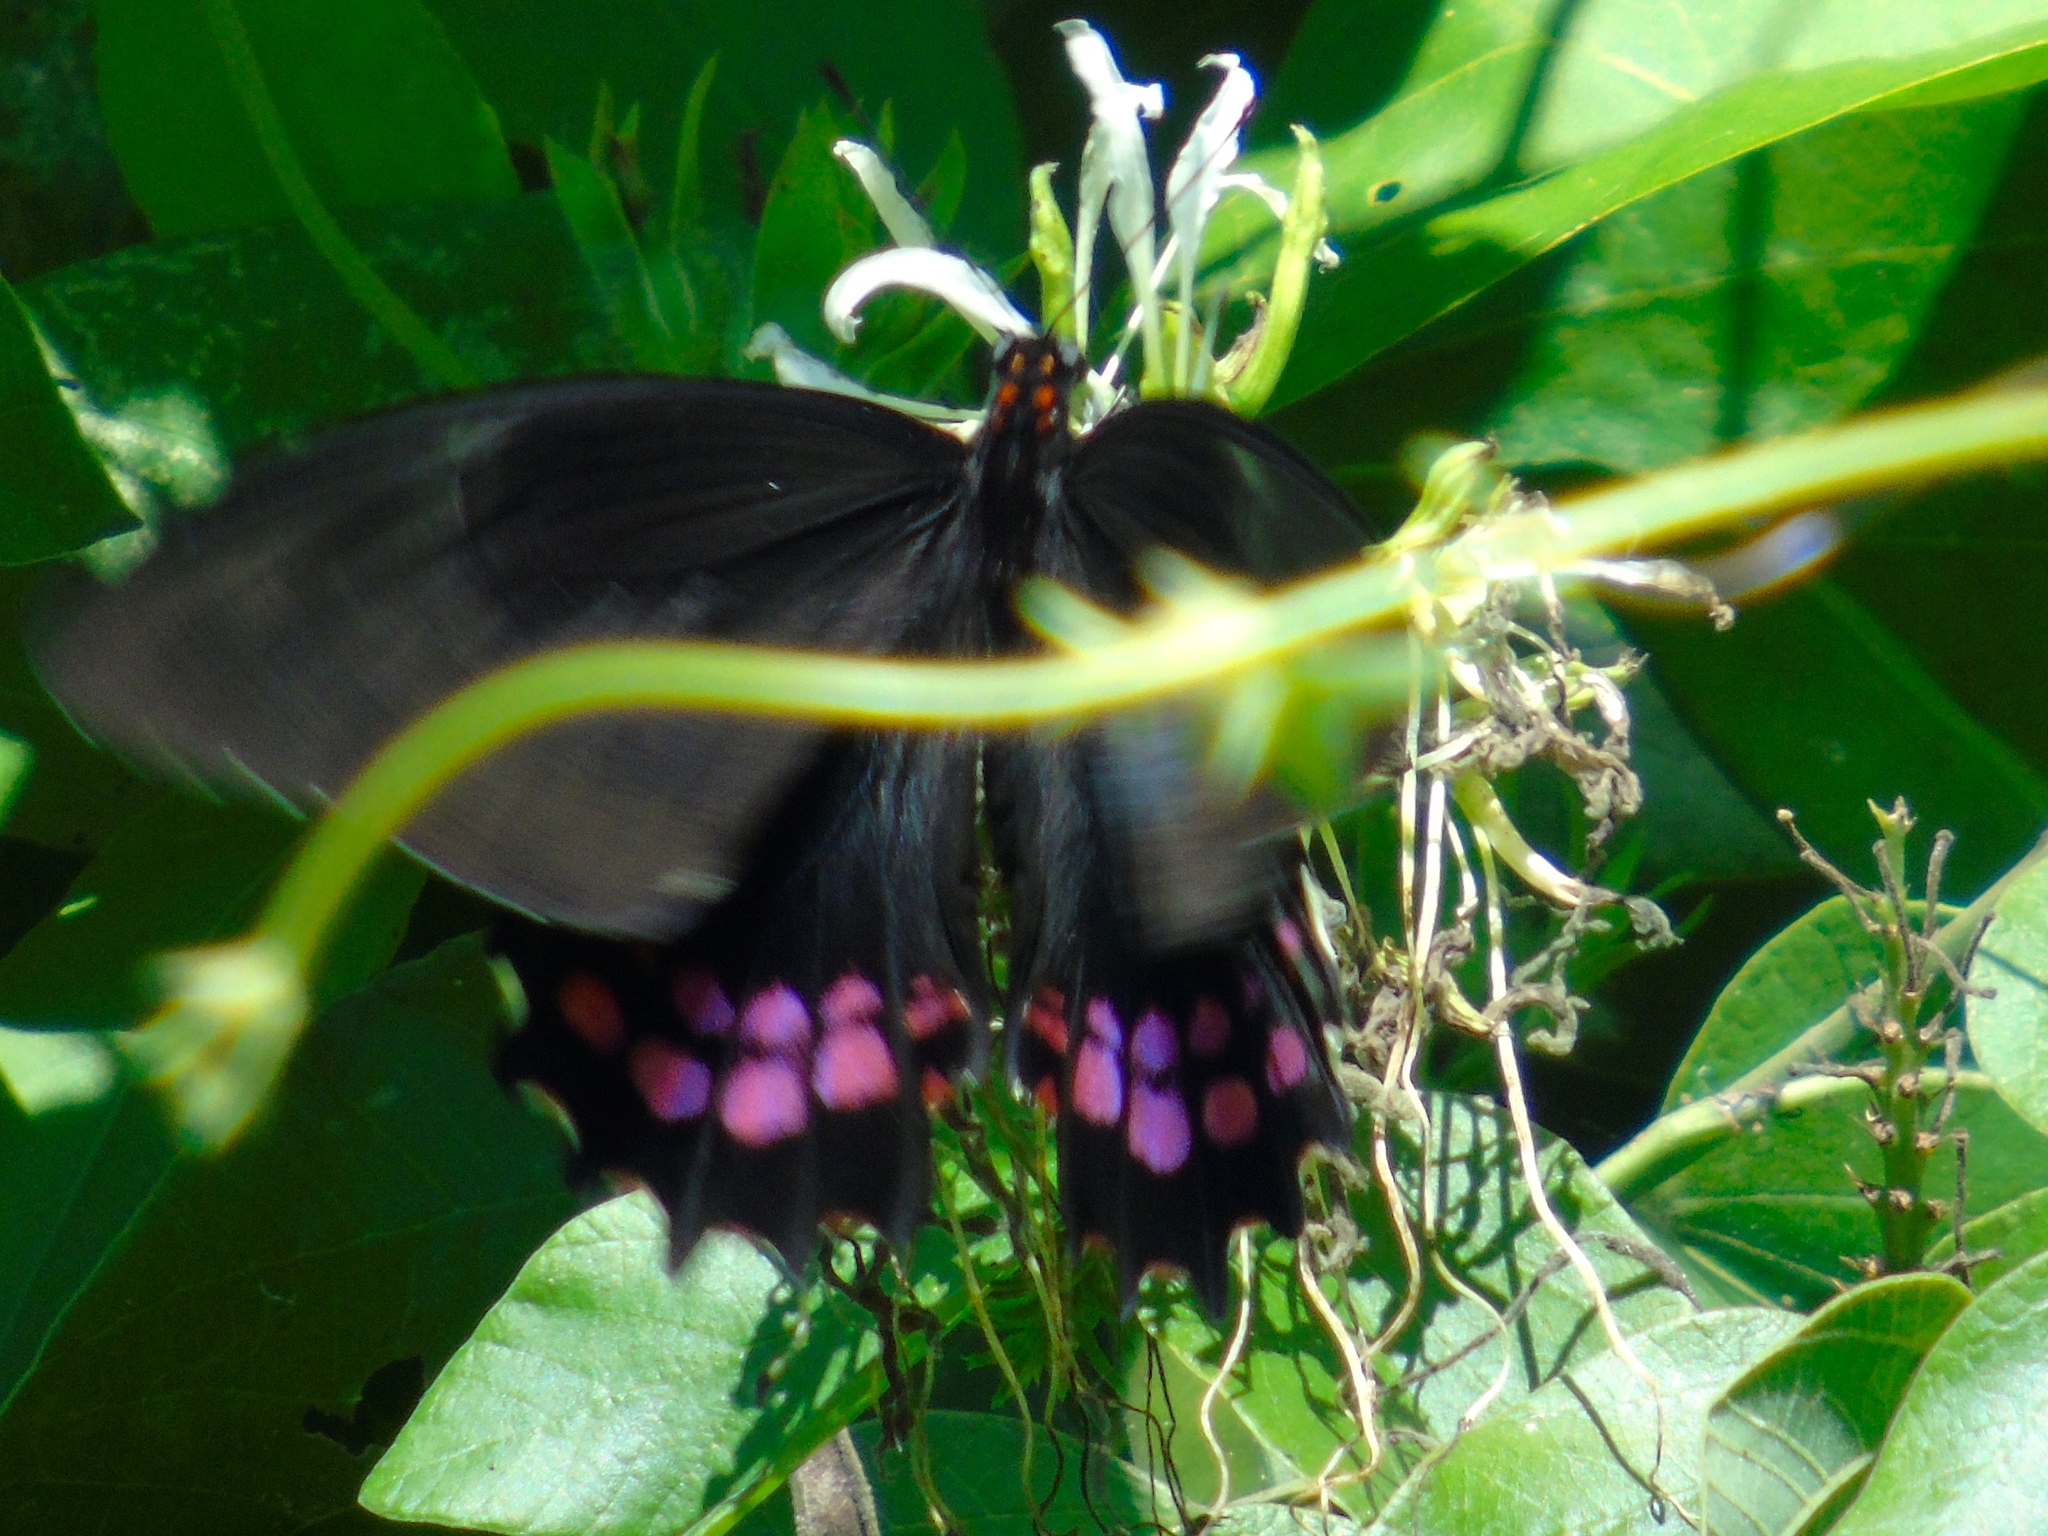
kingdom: Animalia
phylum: Arthropoda
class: Insecta
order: Lepidoptera
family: Papilionidae
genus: Heraclides
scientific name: Heraclides rogeri
